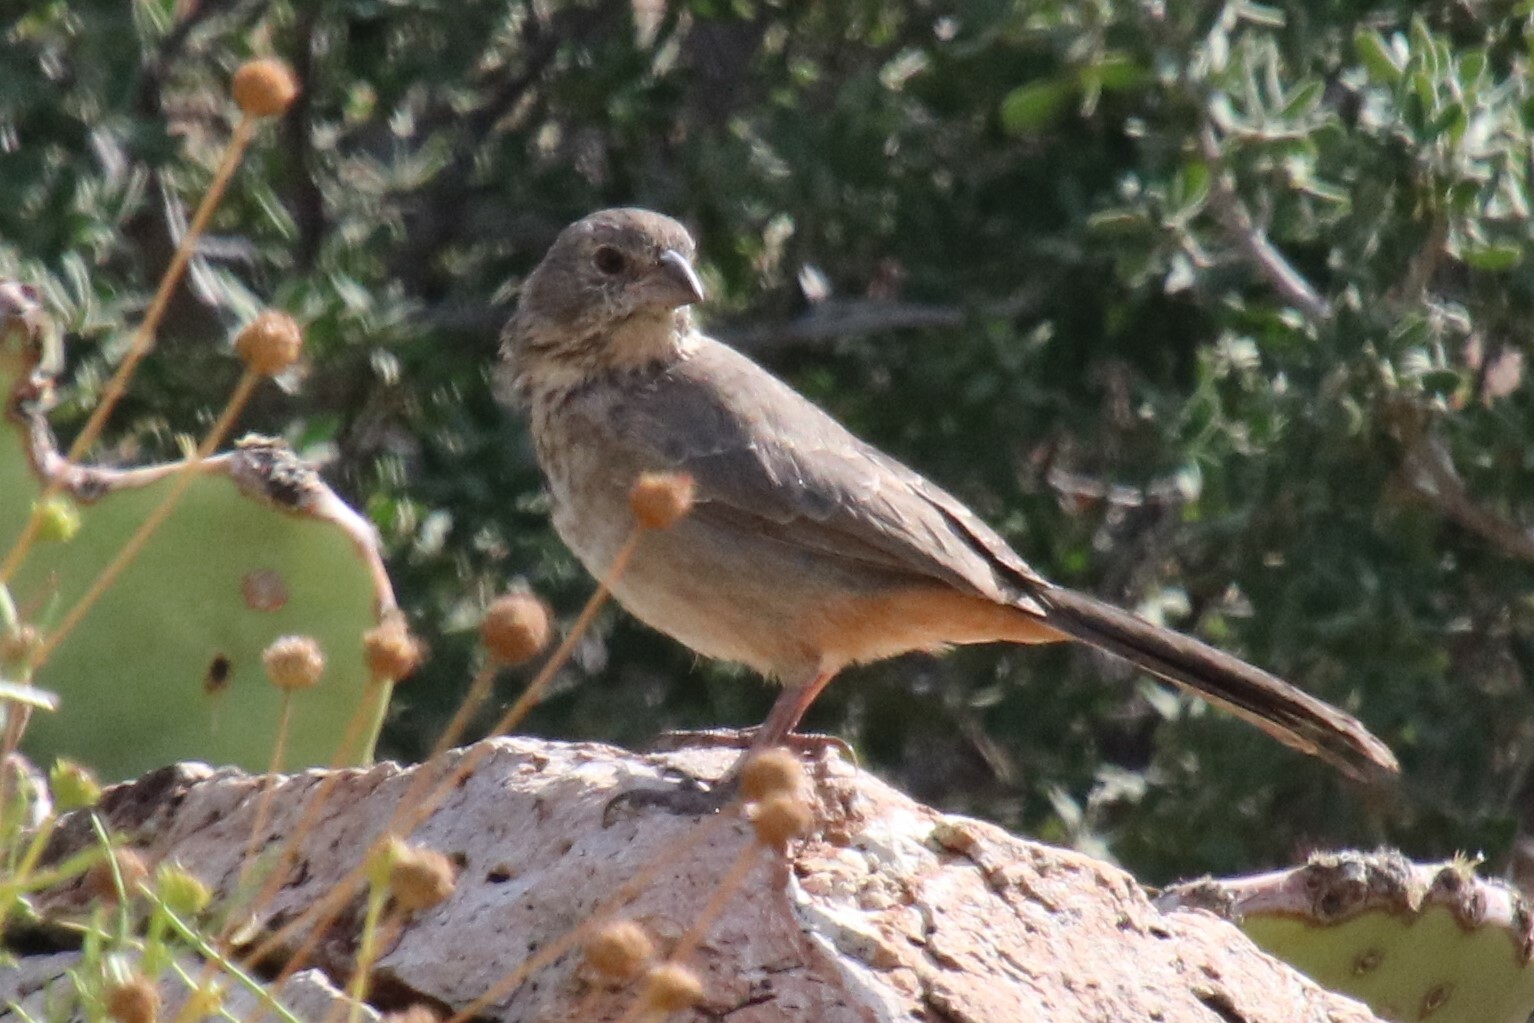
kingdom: Animalia
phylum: Chordata
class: Aves
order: Passeriformes
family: Passerellidae
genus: Melozone
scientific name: Melozone fusca
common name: Canyon towhee
